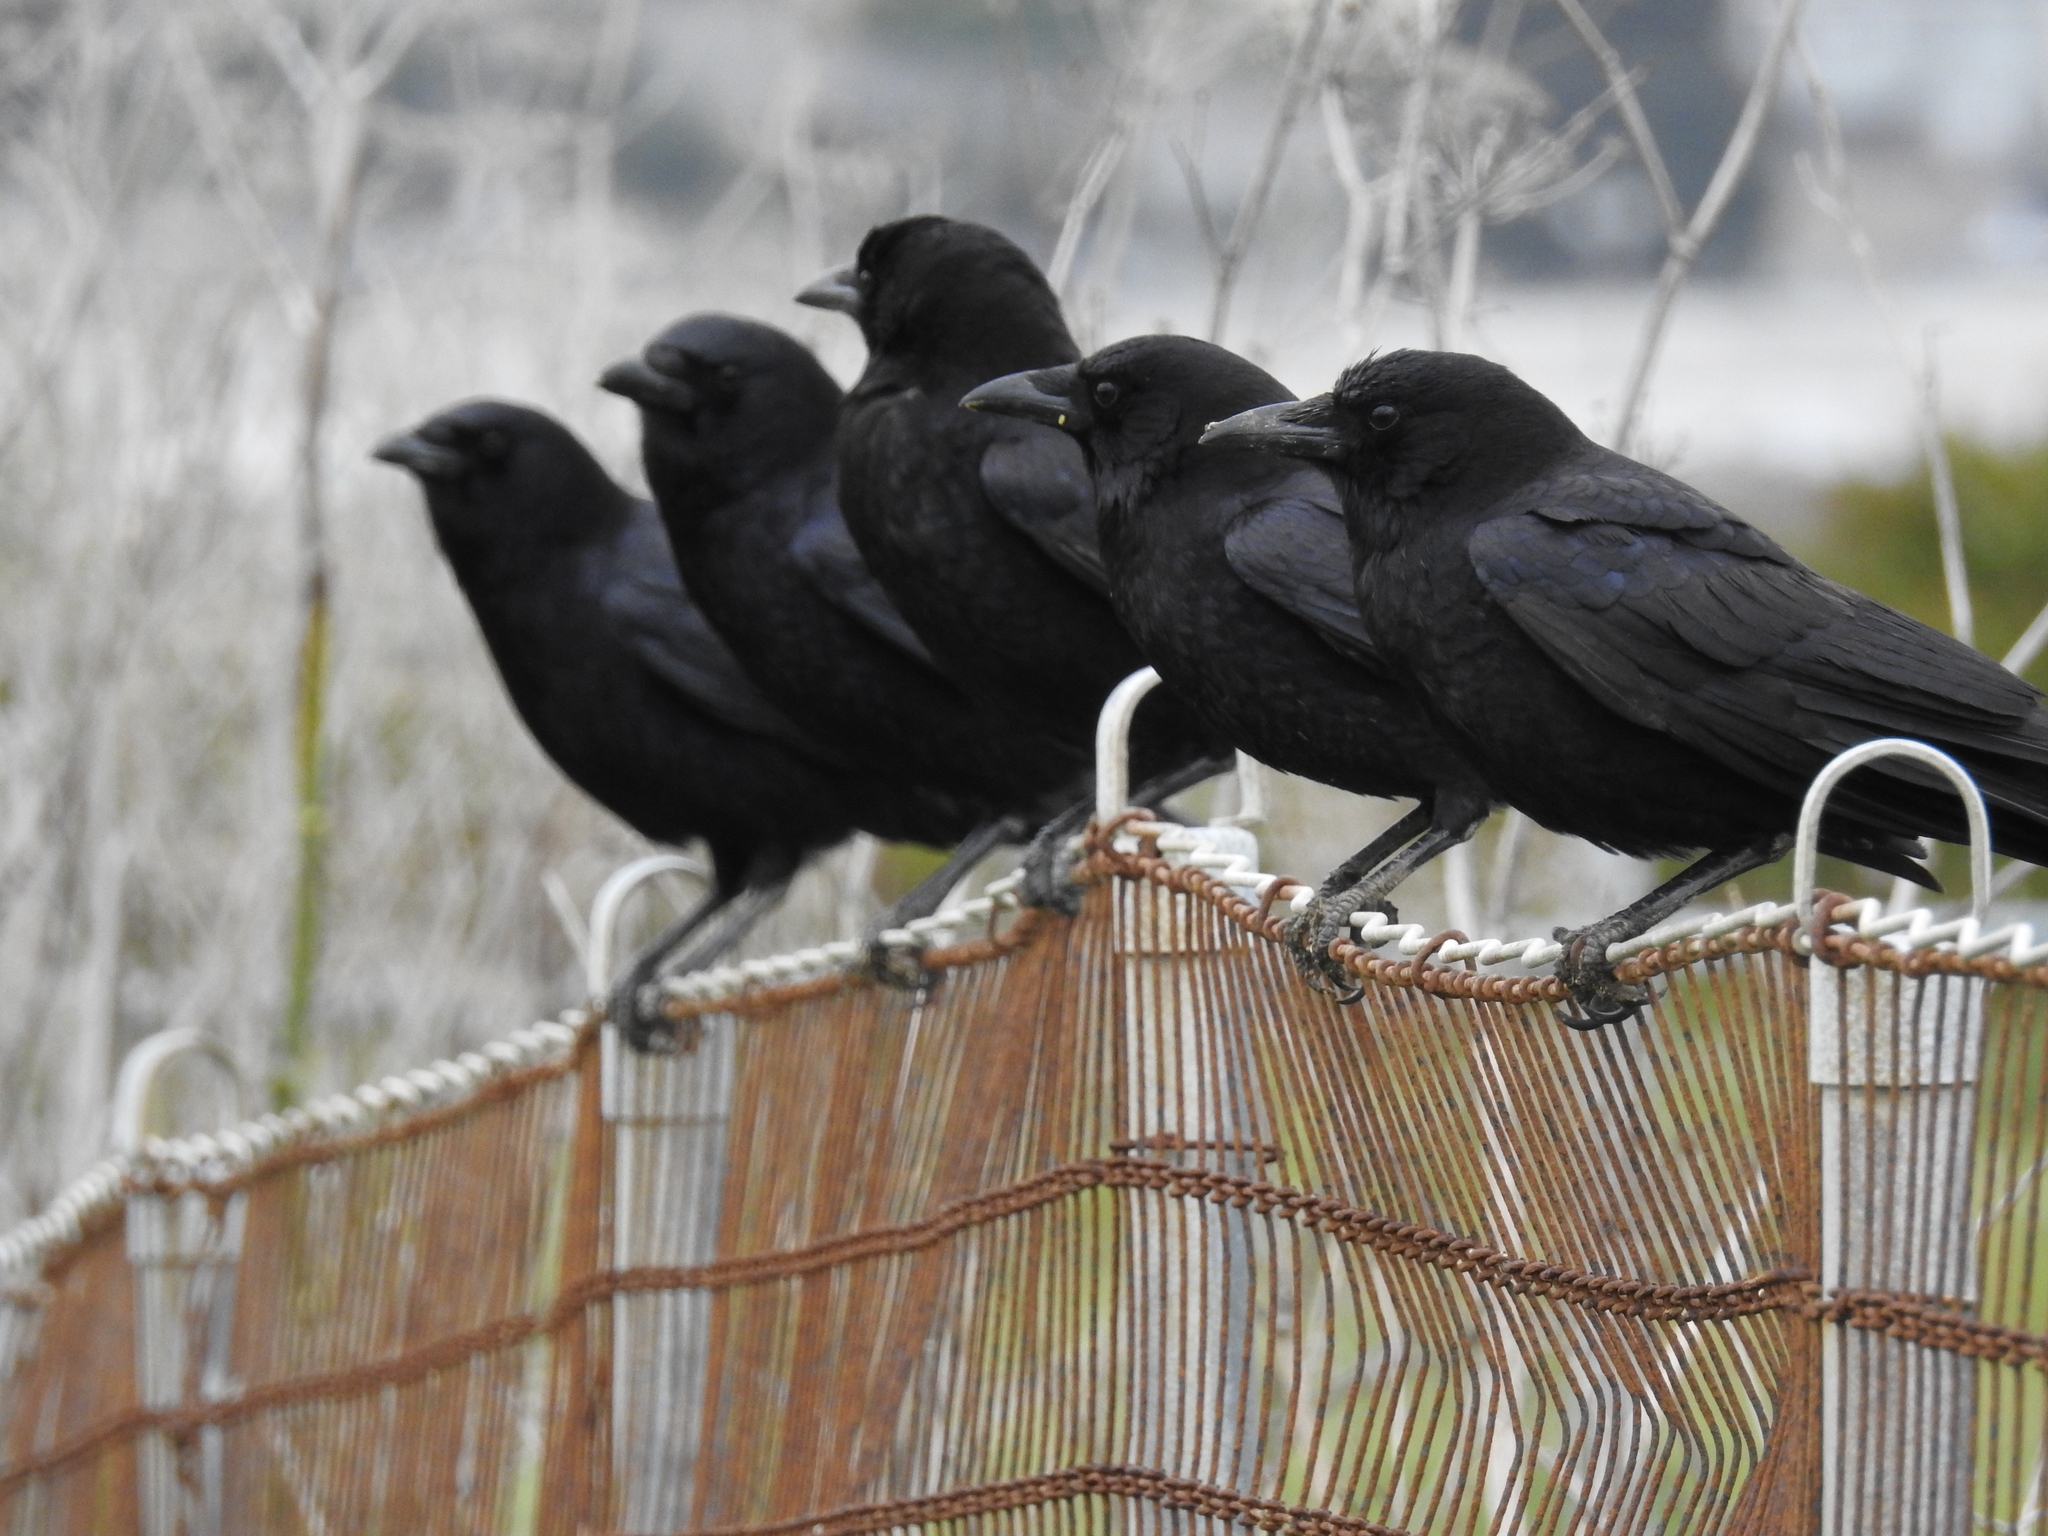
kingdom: Animalia
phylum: Chordata
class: Aves
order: Passeriformes
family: Corvidae
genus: Corvus
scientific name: Corvus brachyrhynchos
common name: American crow
